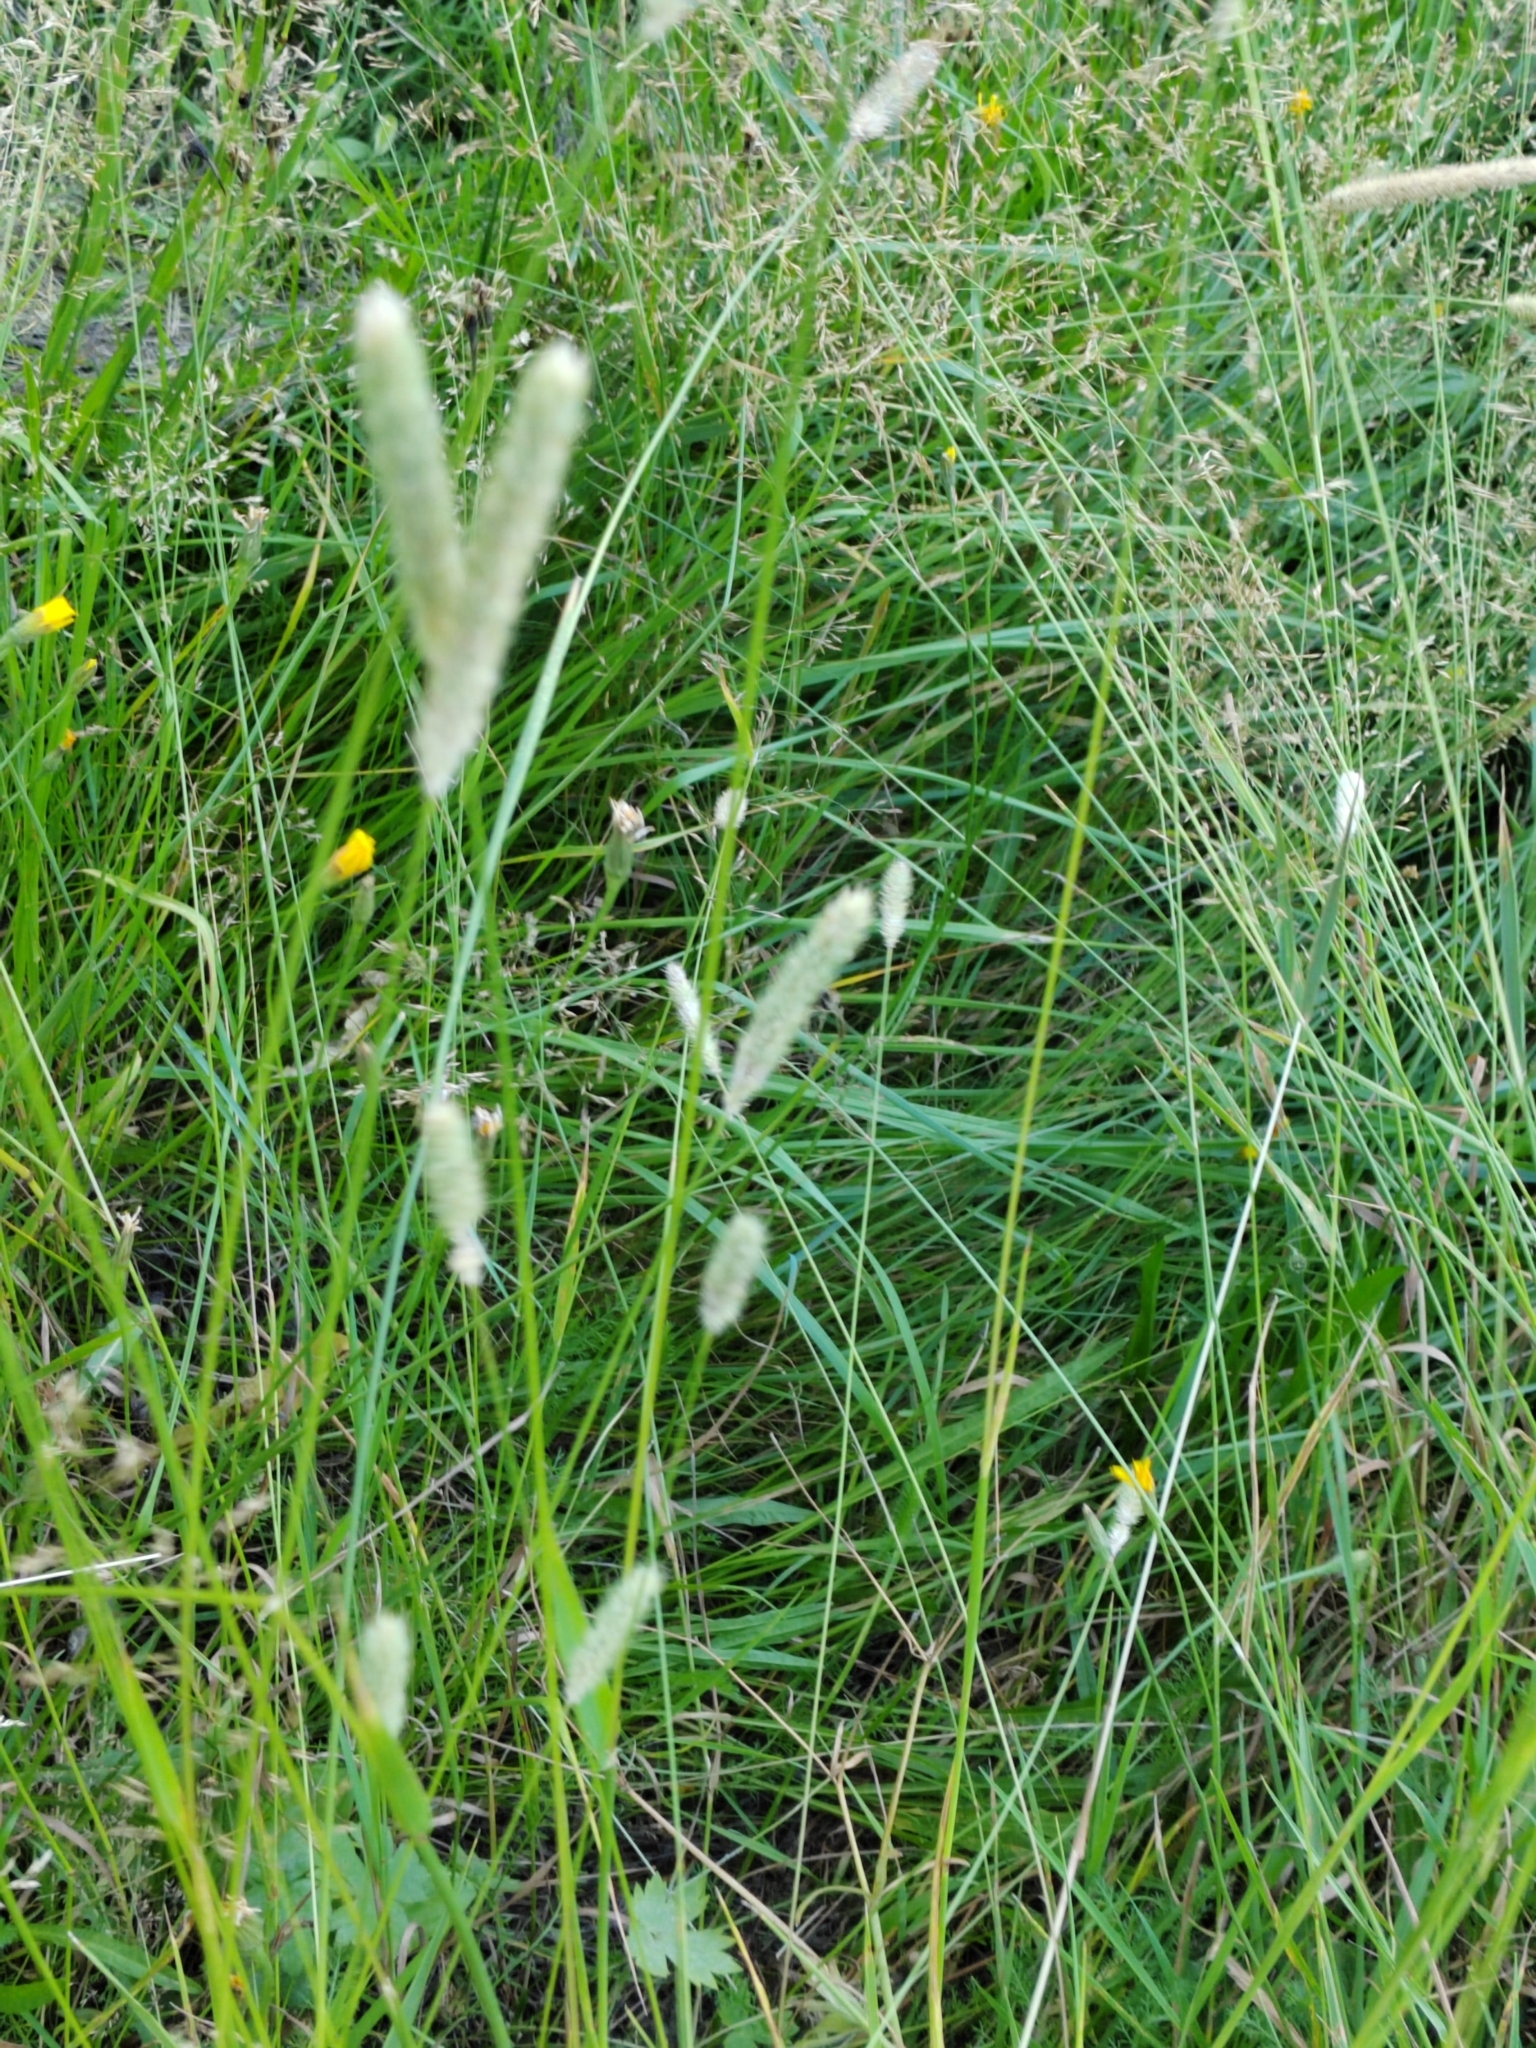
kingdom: Plantae
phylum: Tracheophyta
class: Liliopsida
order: Poales
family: Poaceae
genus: Phleum
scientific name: Phleum pratense
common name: Timothy grass
